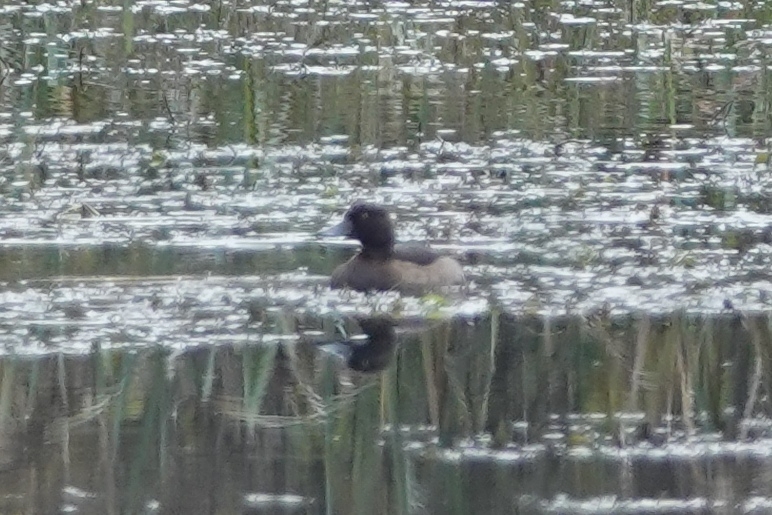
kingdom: Animalia
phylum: Chordata
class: Aves
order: Anseriformes
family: Anatidae
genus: Aythya
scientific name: Aythya fuligula
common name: Tufted duck
